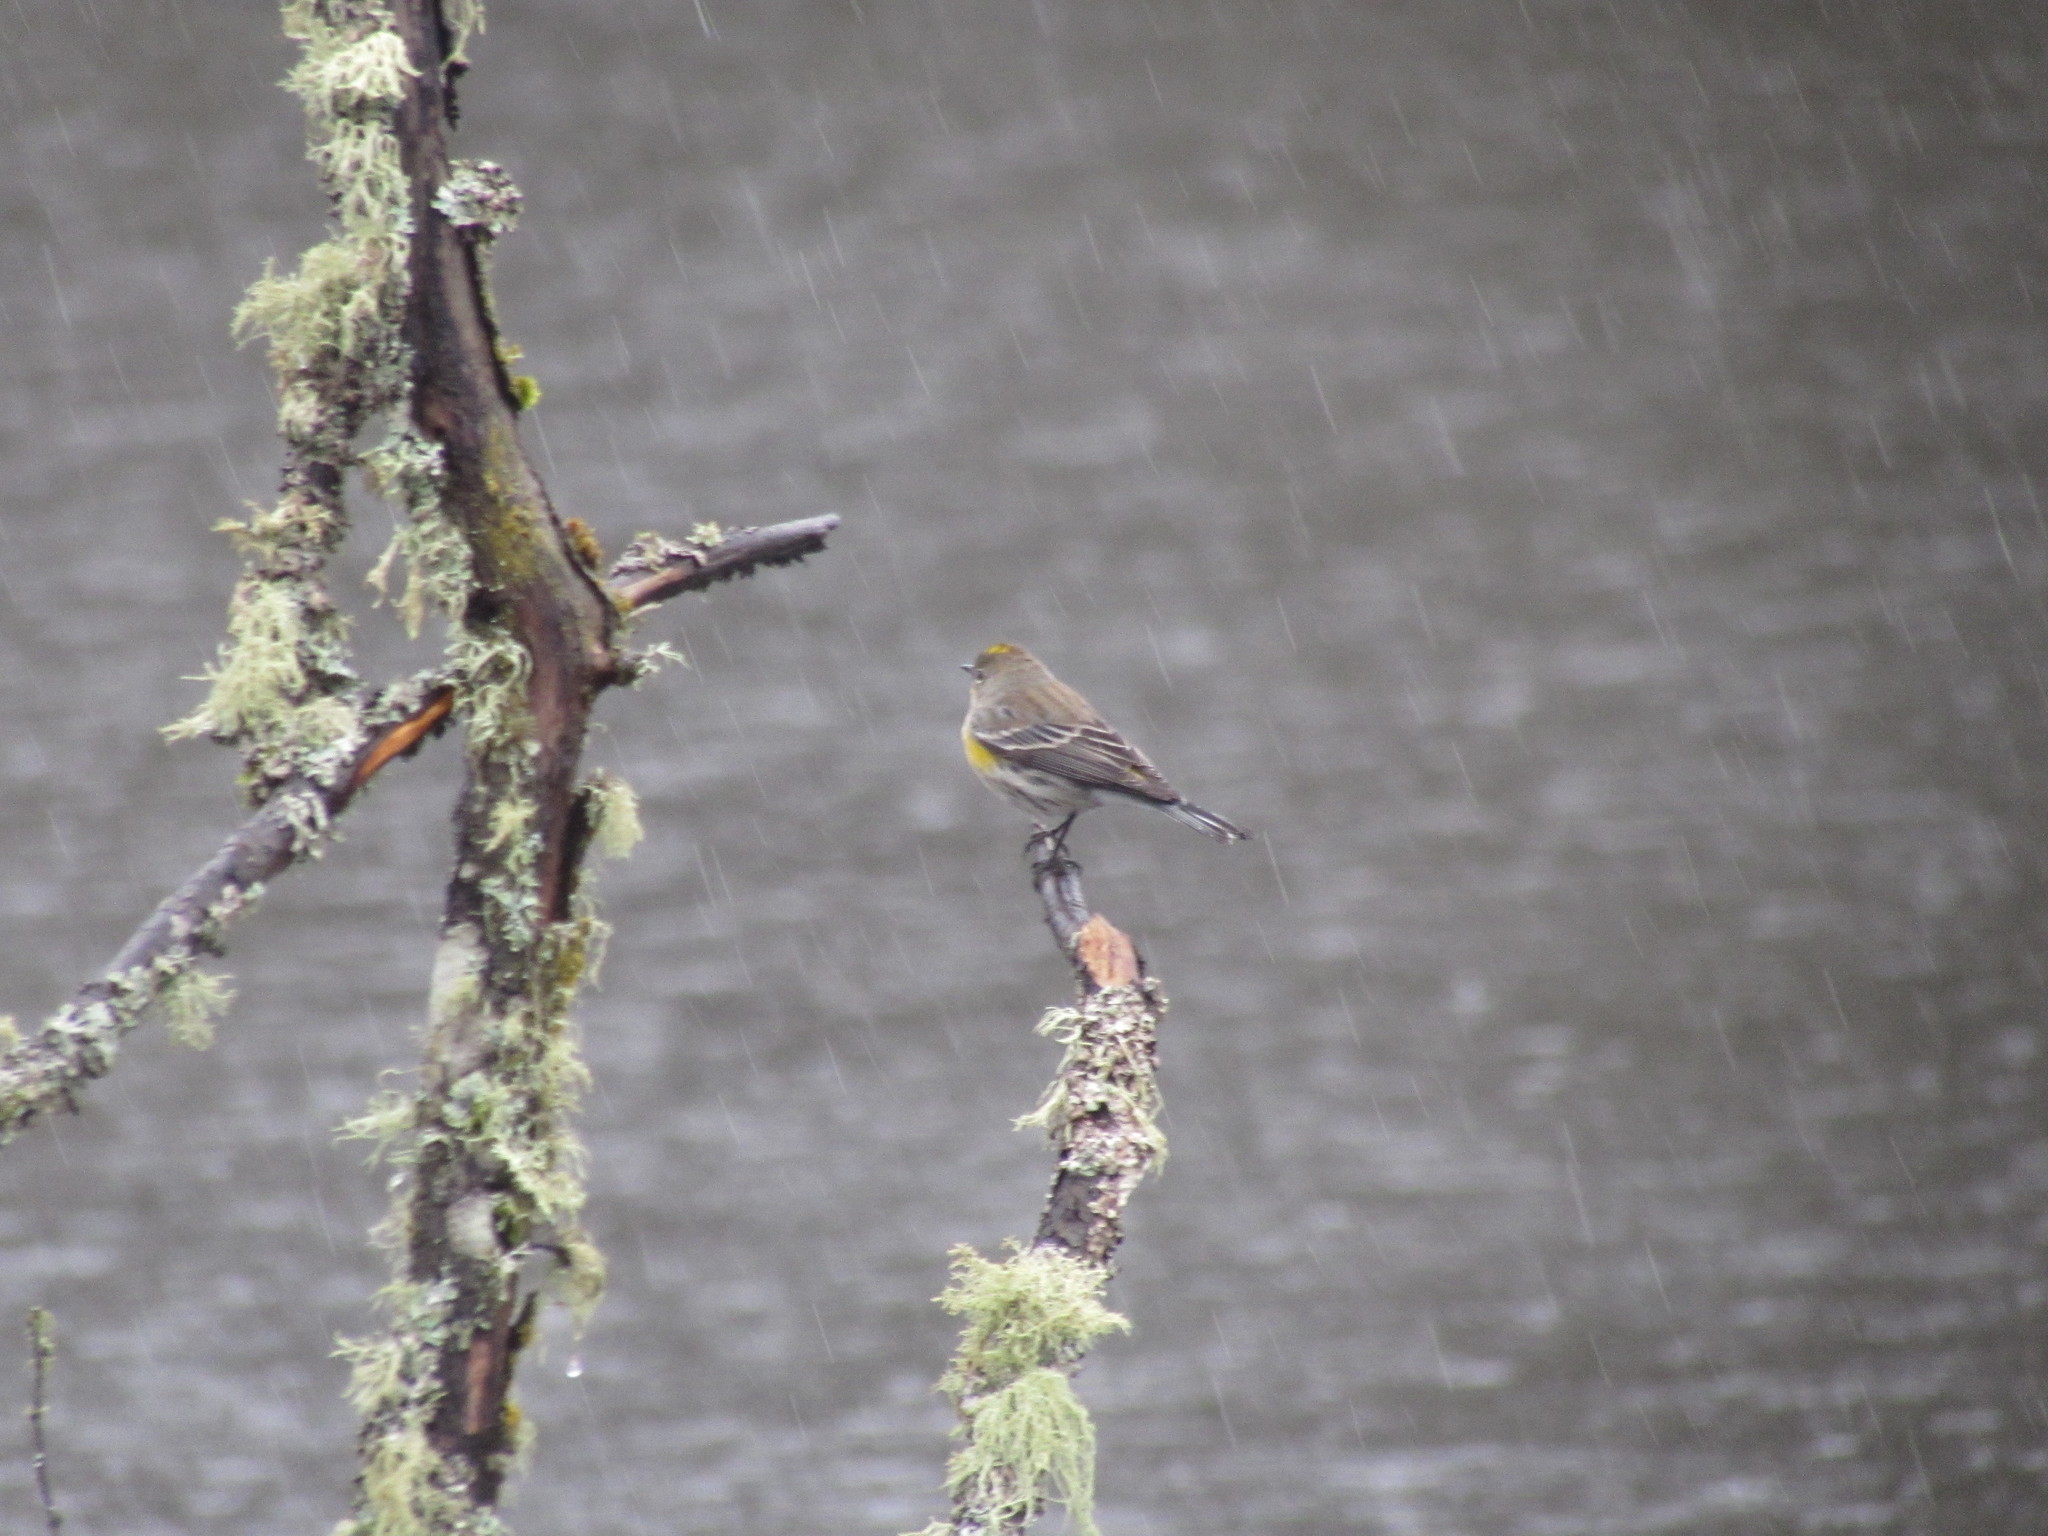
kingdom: Animalia
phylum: Chordata
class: Aves
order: Passeriformes
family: Parulidae
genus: Setophaga
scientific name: Setophaga coronata
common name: Myrtle warbler
